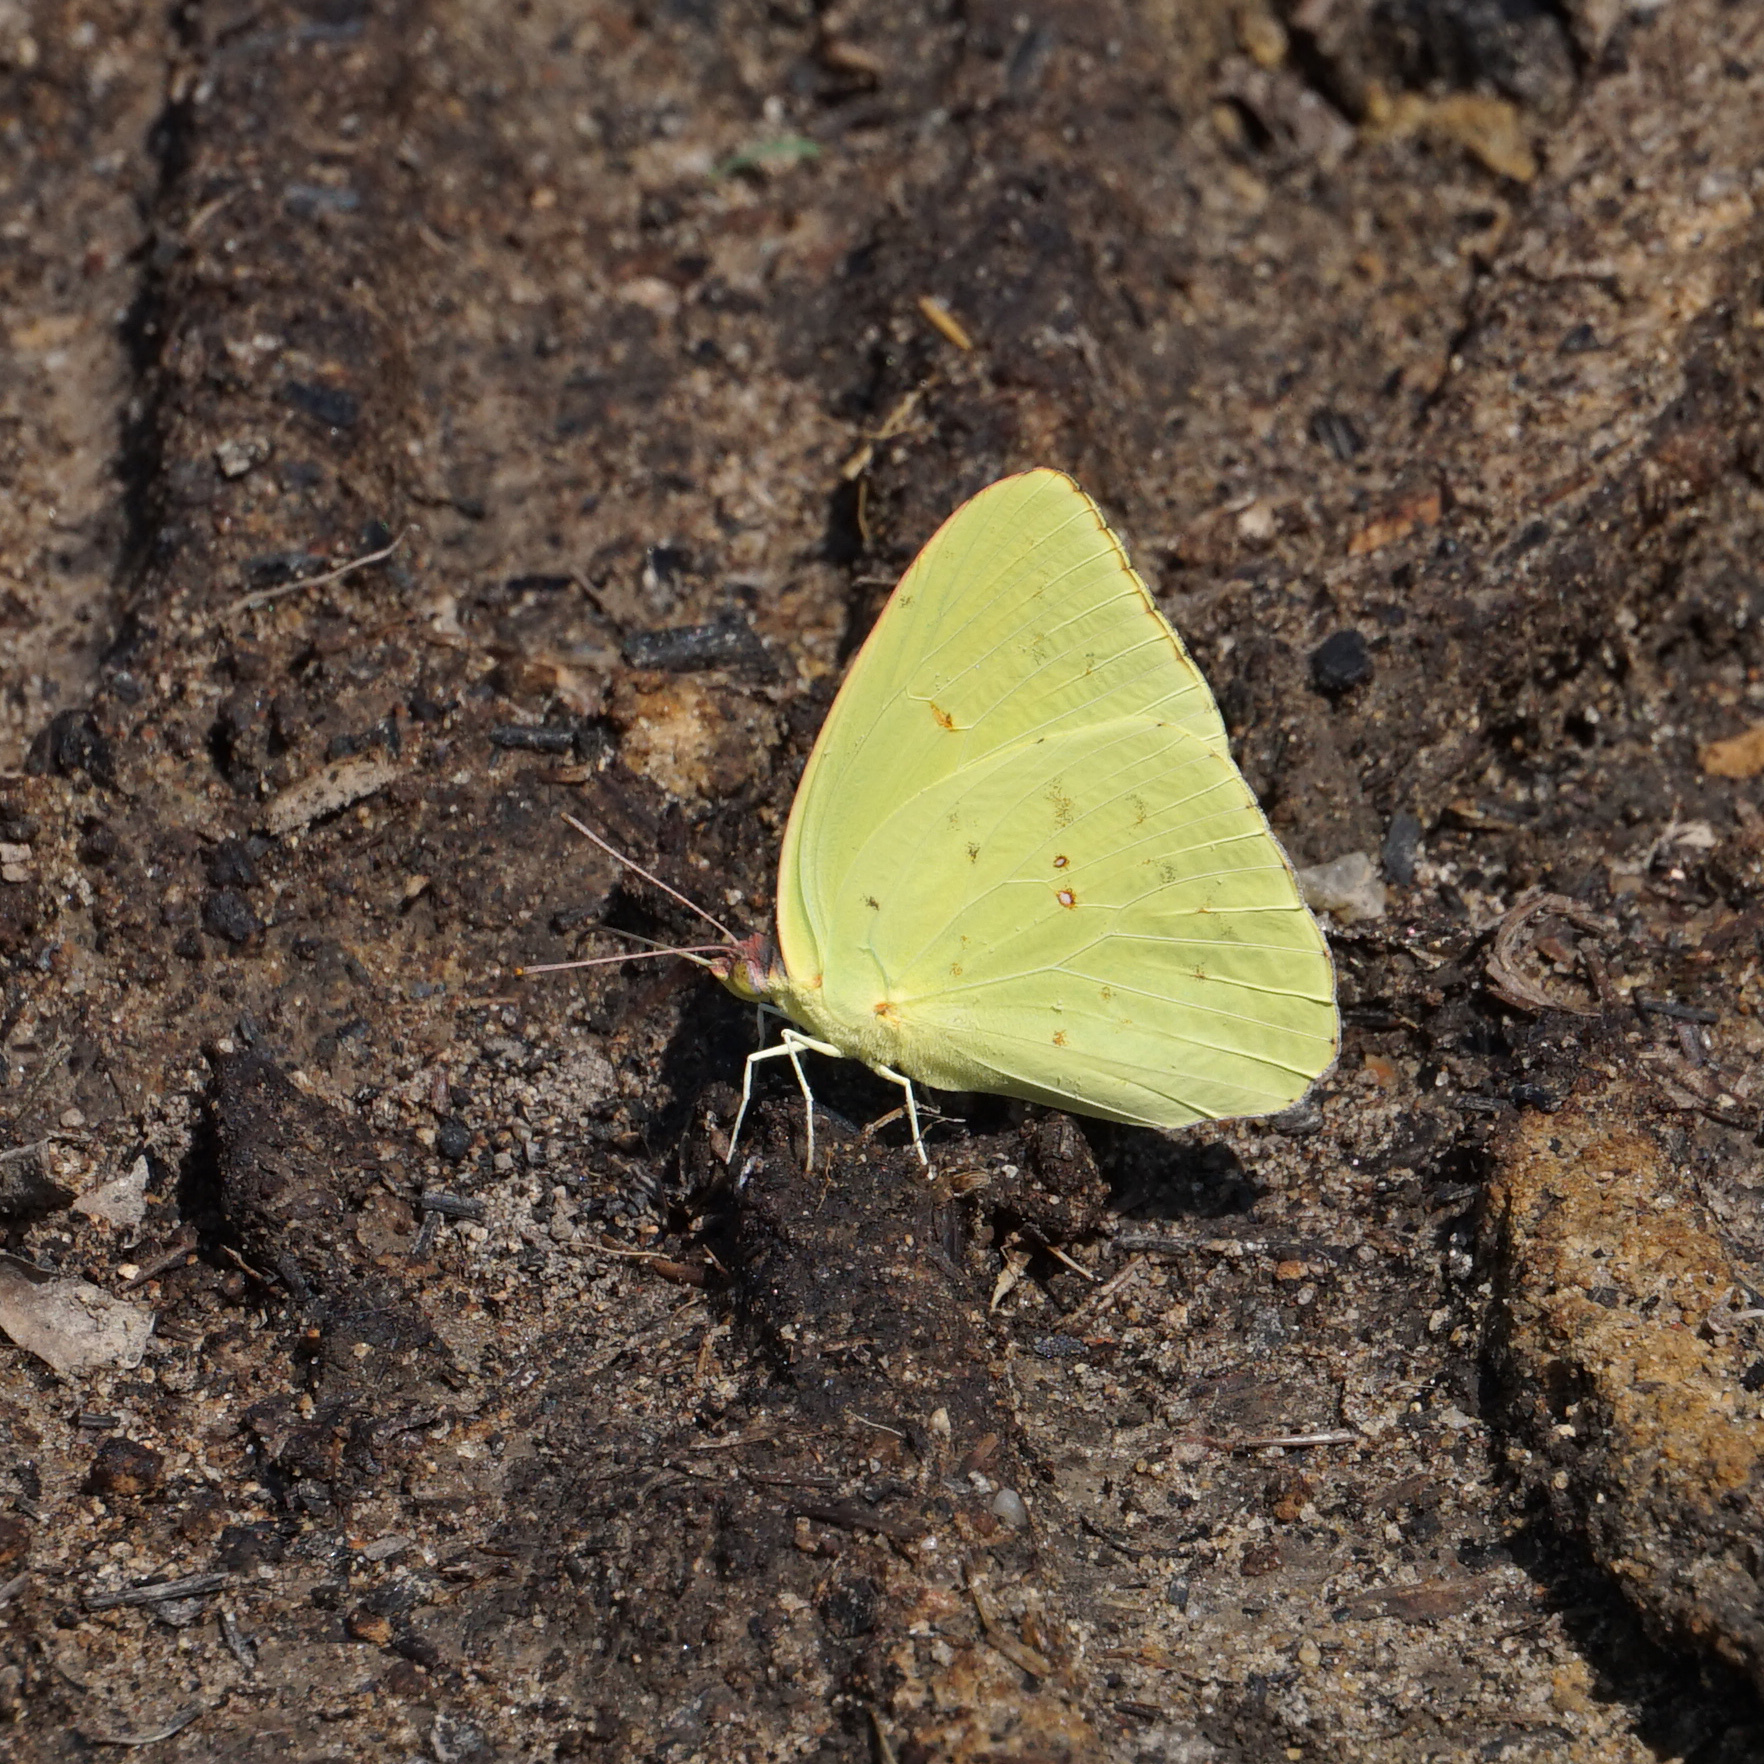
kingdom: Animalia
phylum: Arthropoda
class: Insecta
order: Lepidoptera
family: Pieridae
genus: Phoebis
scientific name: Phoebis sennae
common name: Cloudless sulphur
